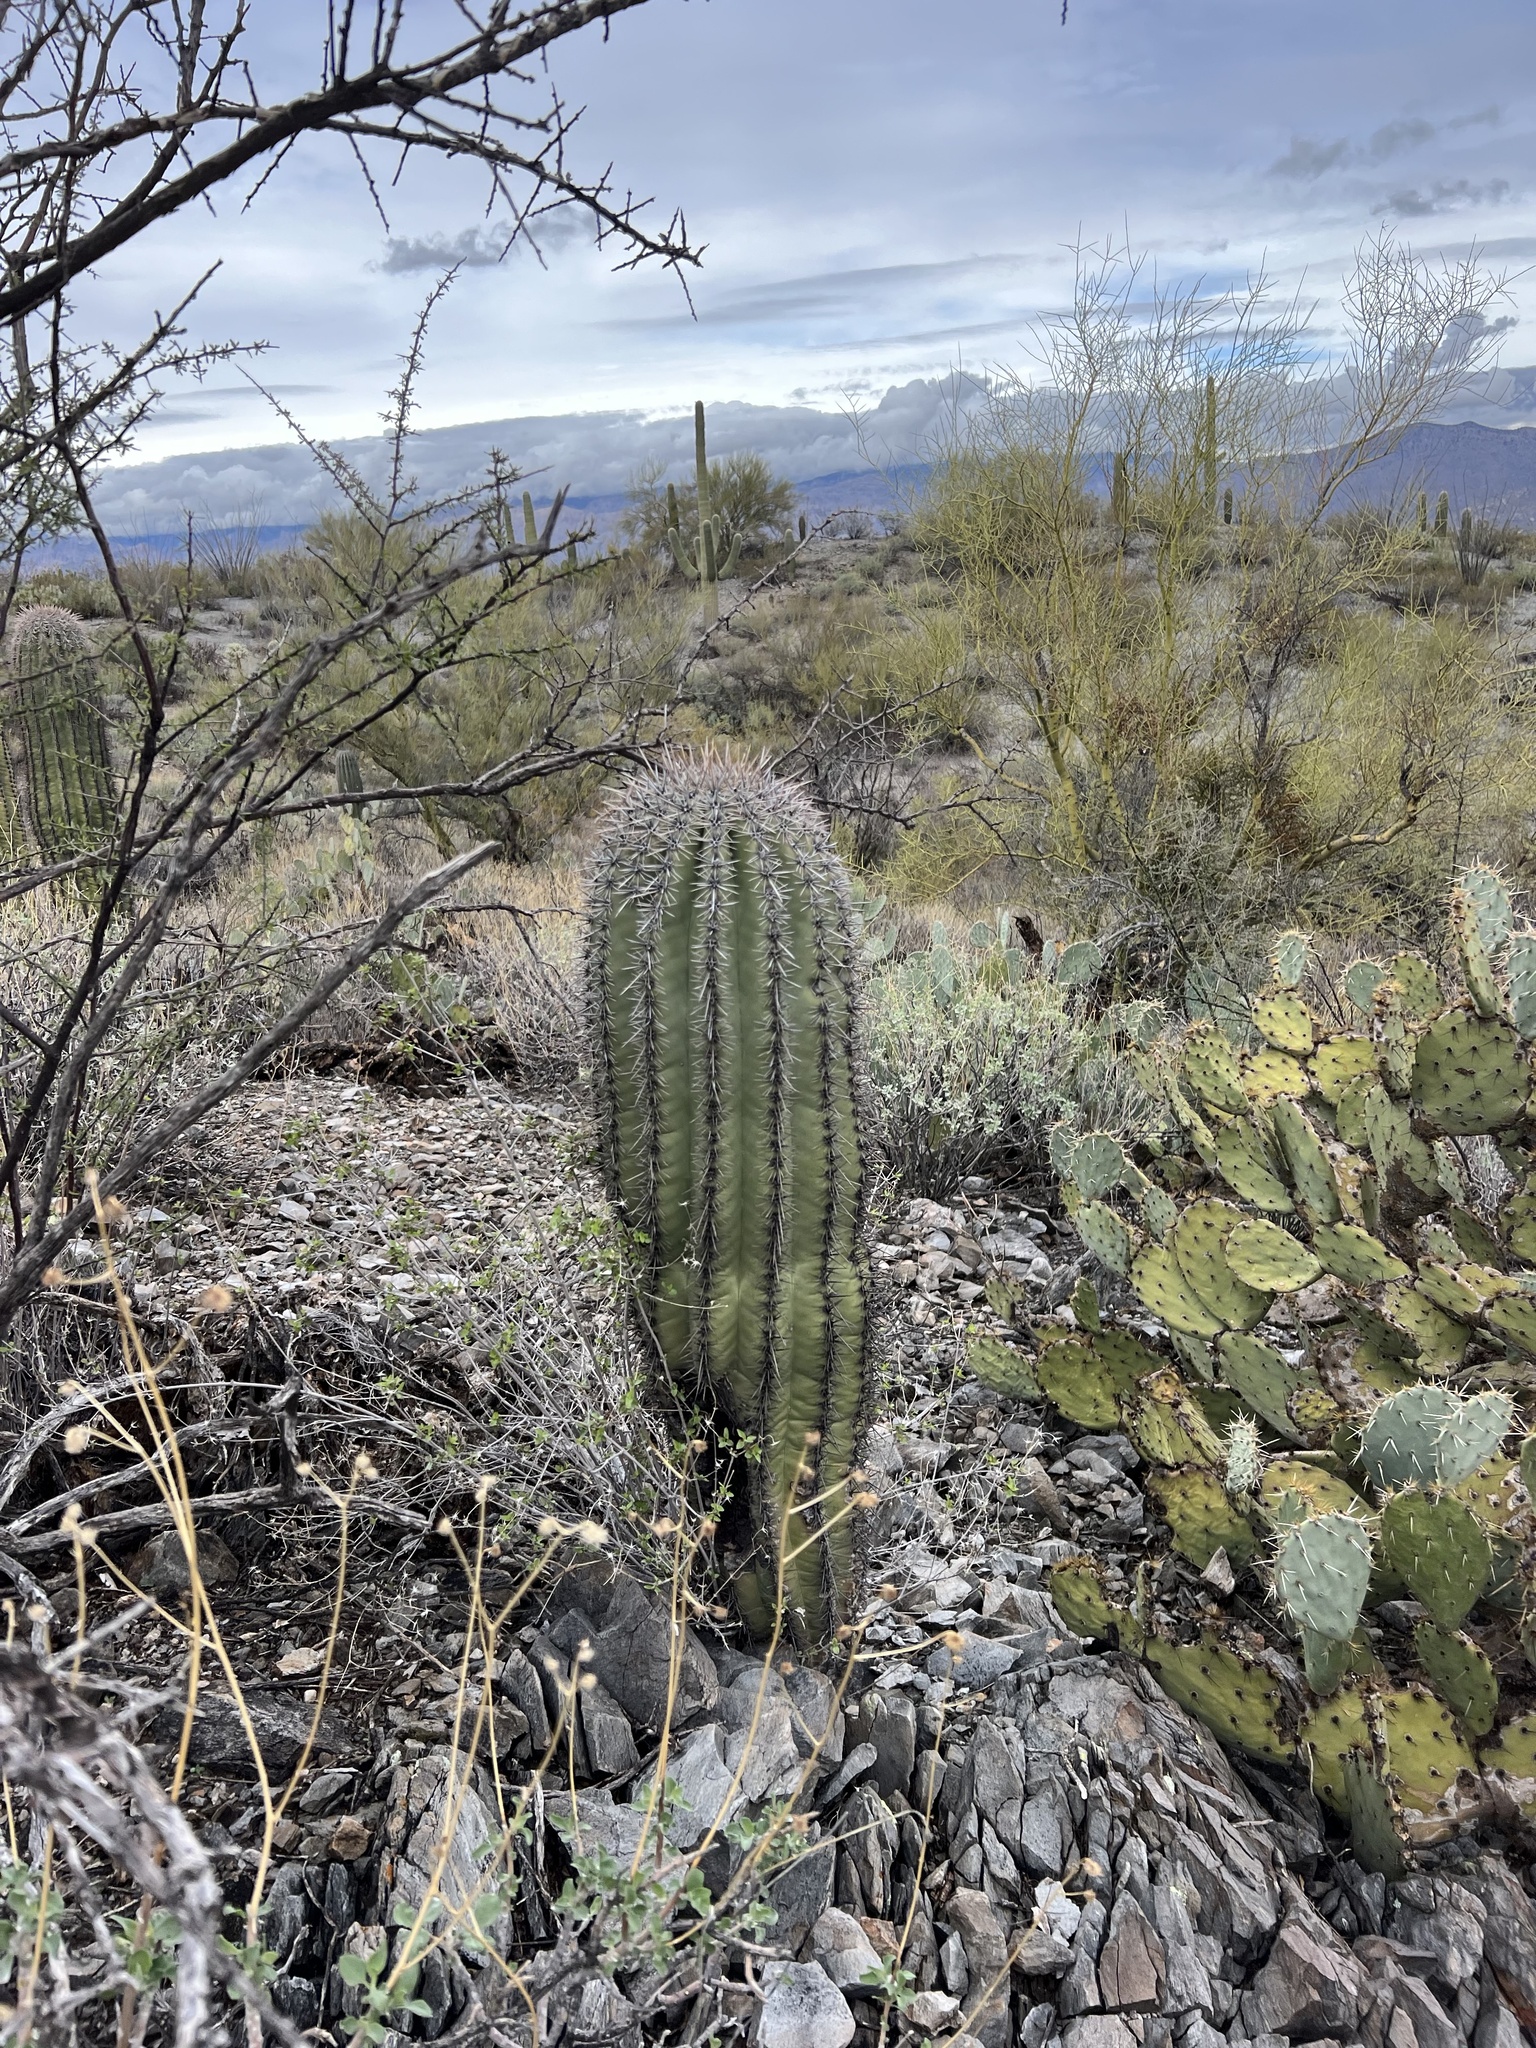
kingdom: Plantae
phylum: Tracheophyta
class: Magnoliopsida
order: Caryophyllales
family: Cactaceae
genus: Carnegiea
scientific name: Carnegiea gigantea
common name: Saguaro
